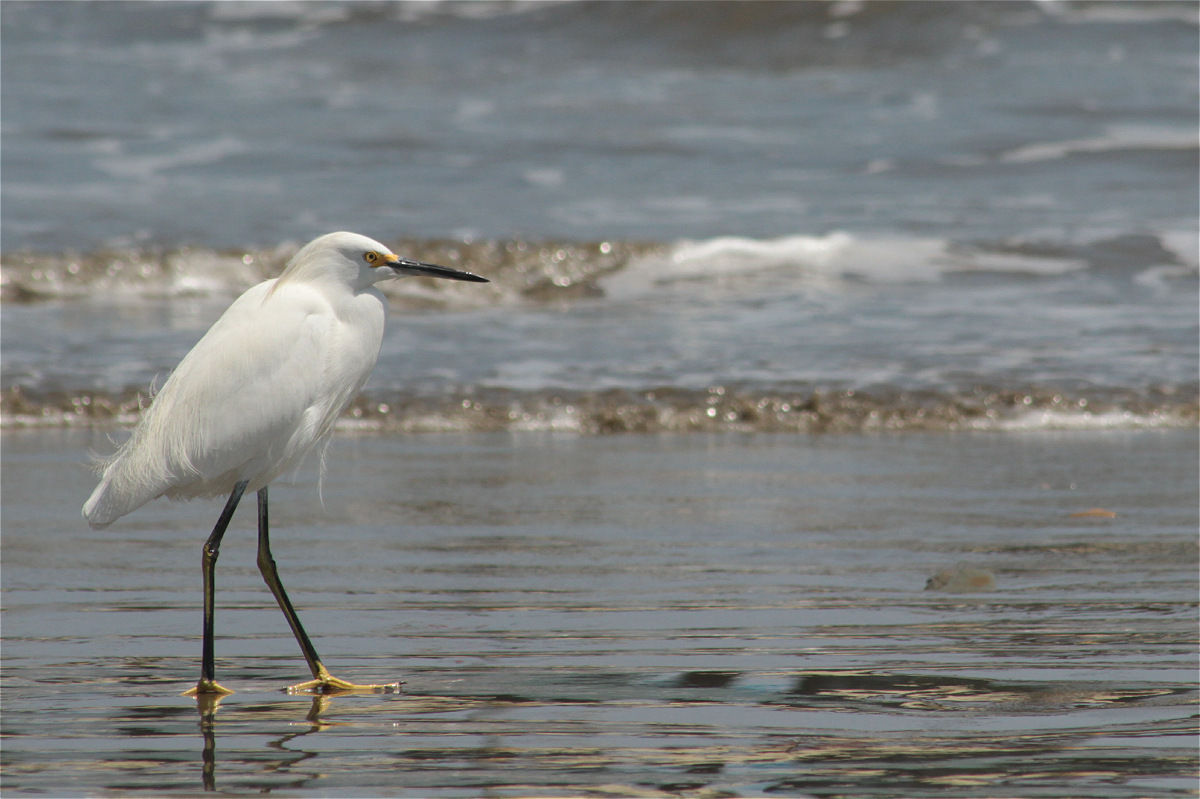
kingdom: Animalia
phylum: Chordata
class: Aves
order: Pelecaniformes
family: Ardeidae
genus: Egretta
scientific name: Egretta thula
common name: Snowy egret
